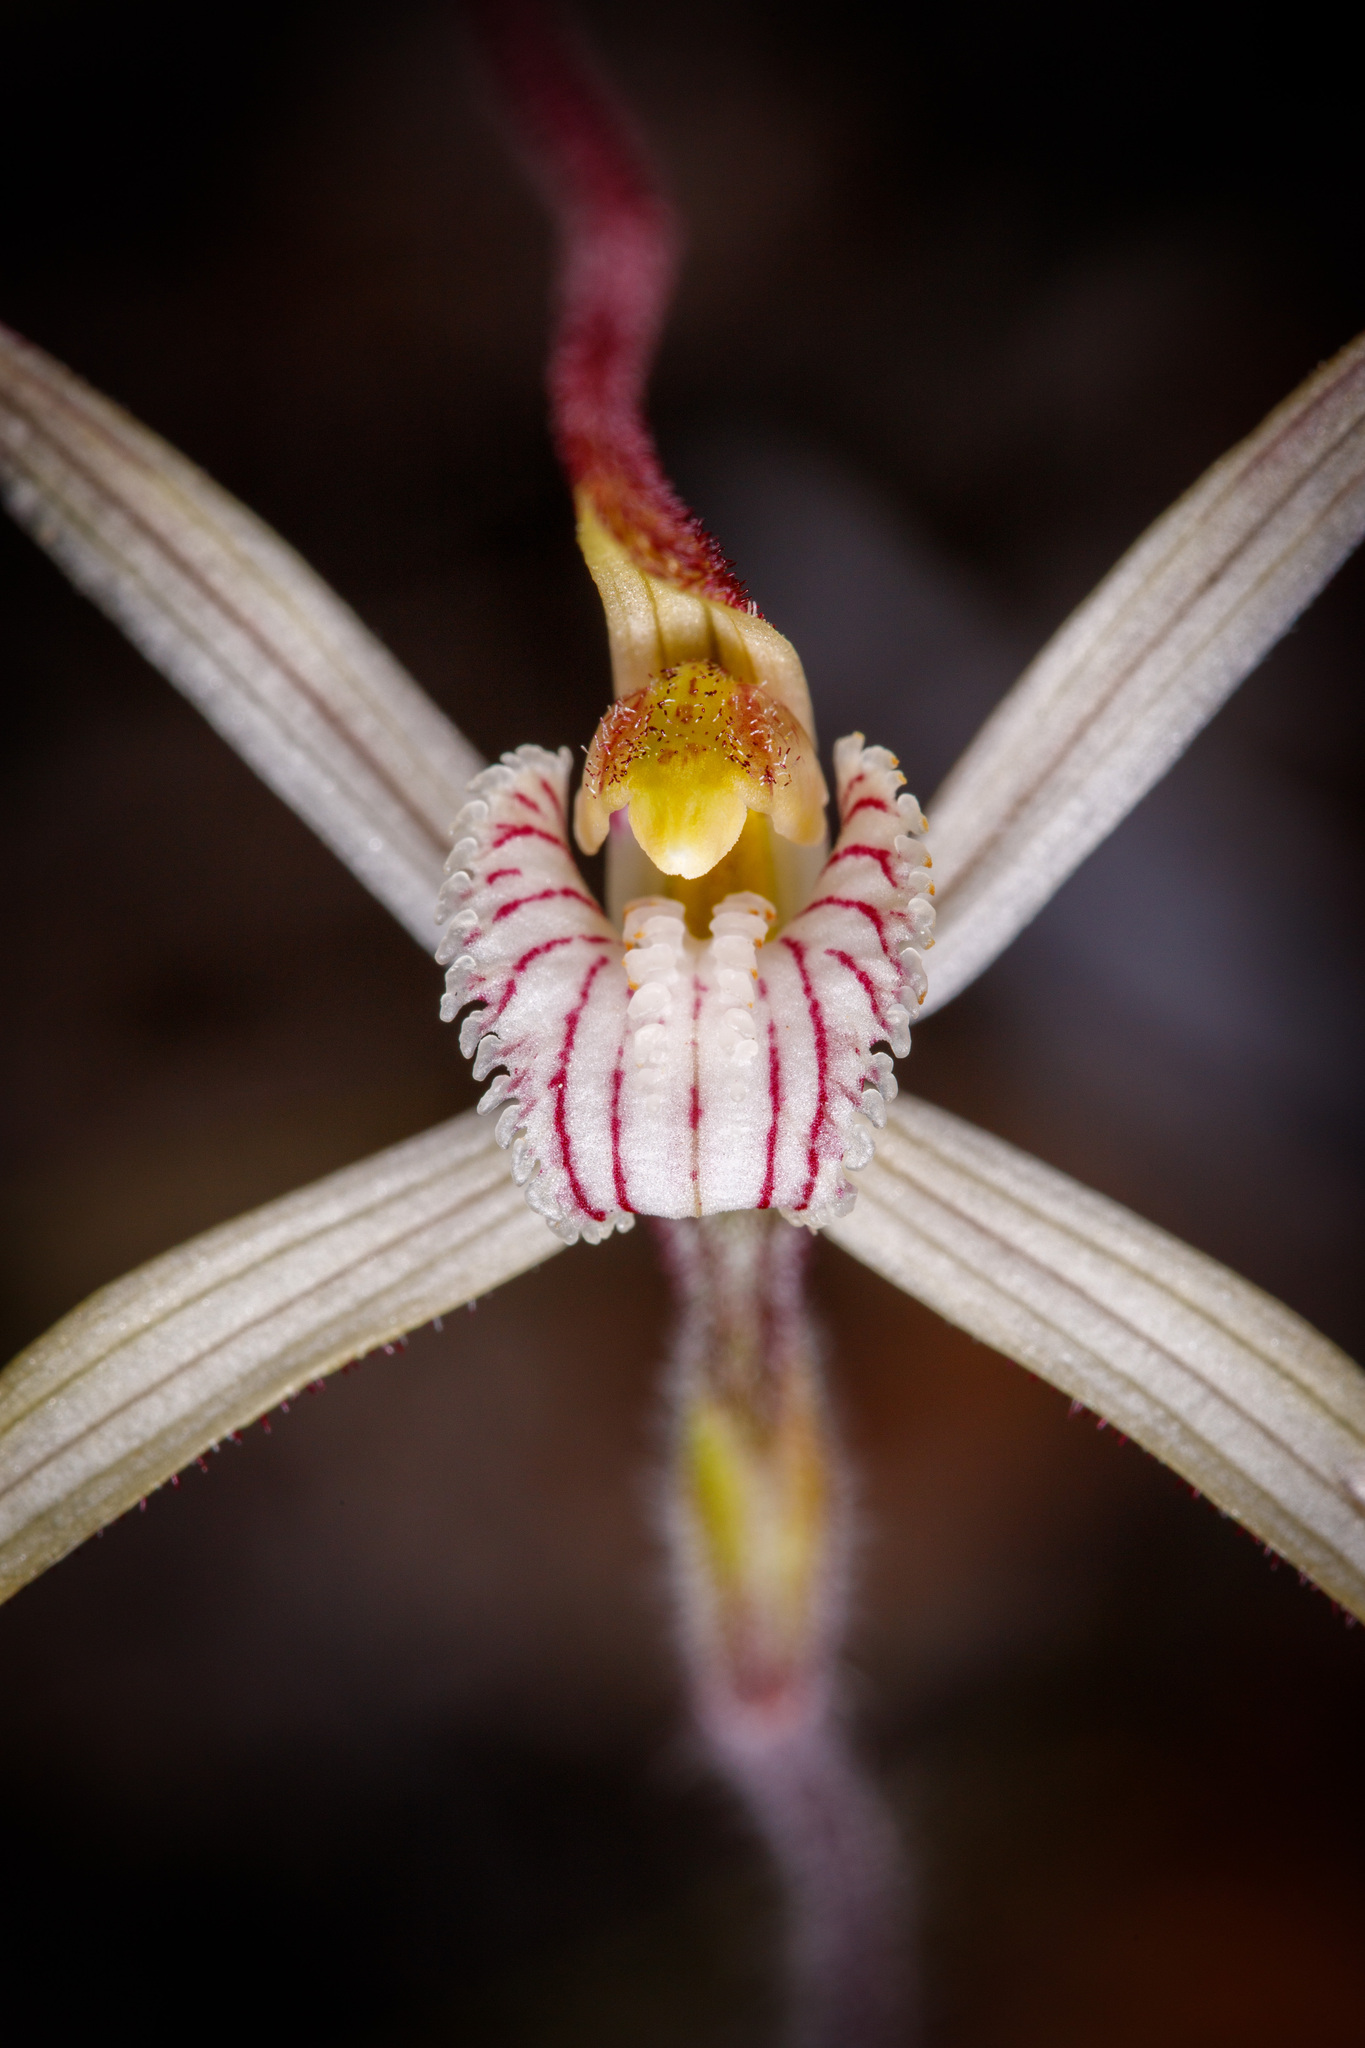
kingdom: Plantae
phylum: Tracheophyta
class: Liliopsida
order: Asparagales
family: Orchidaceae
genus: Caladenia
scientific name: Caladenia polychroma
